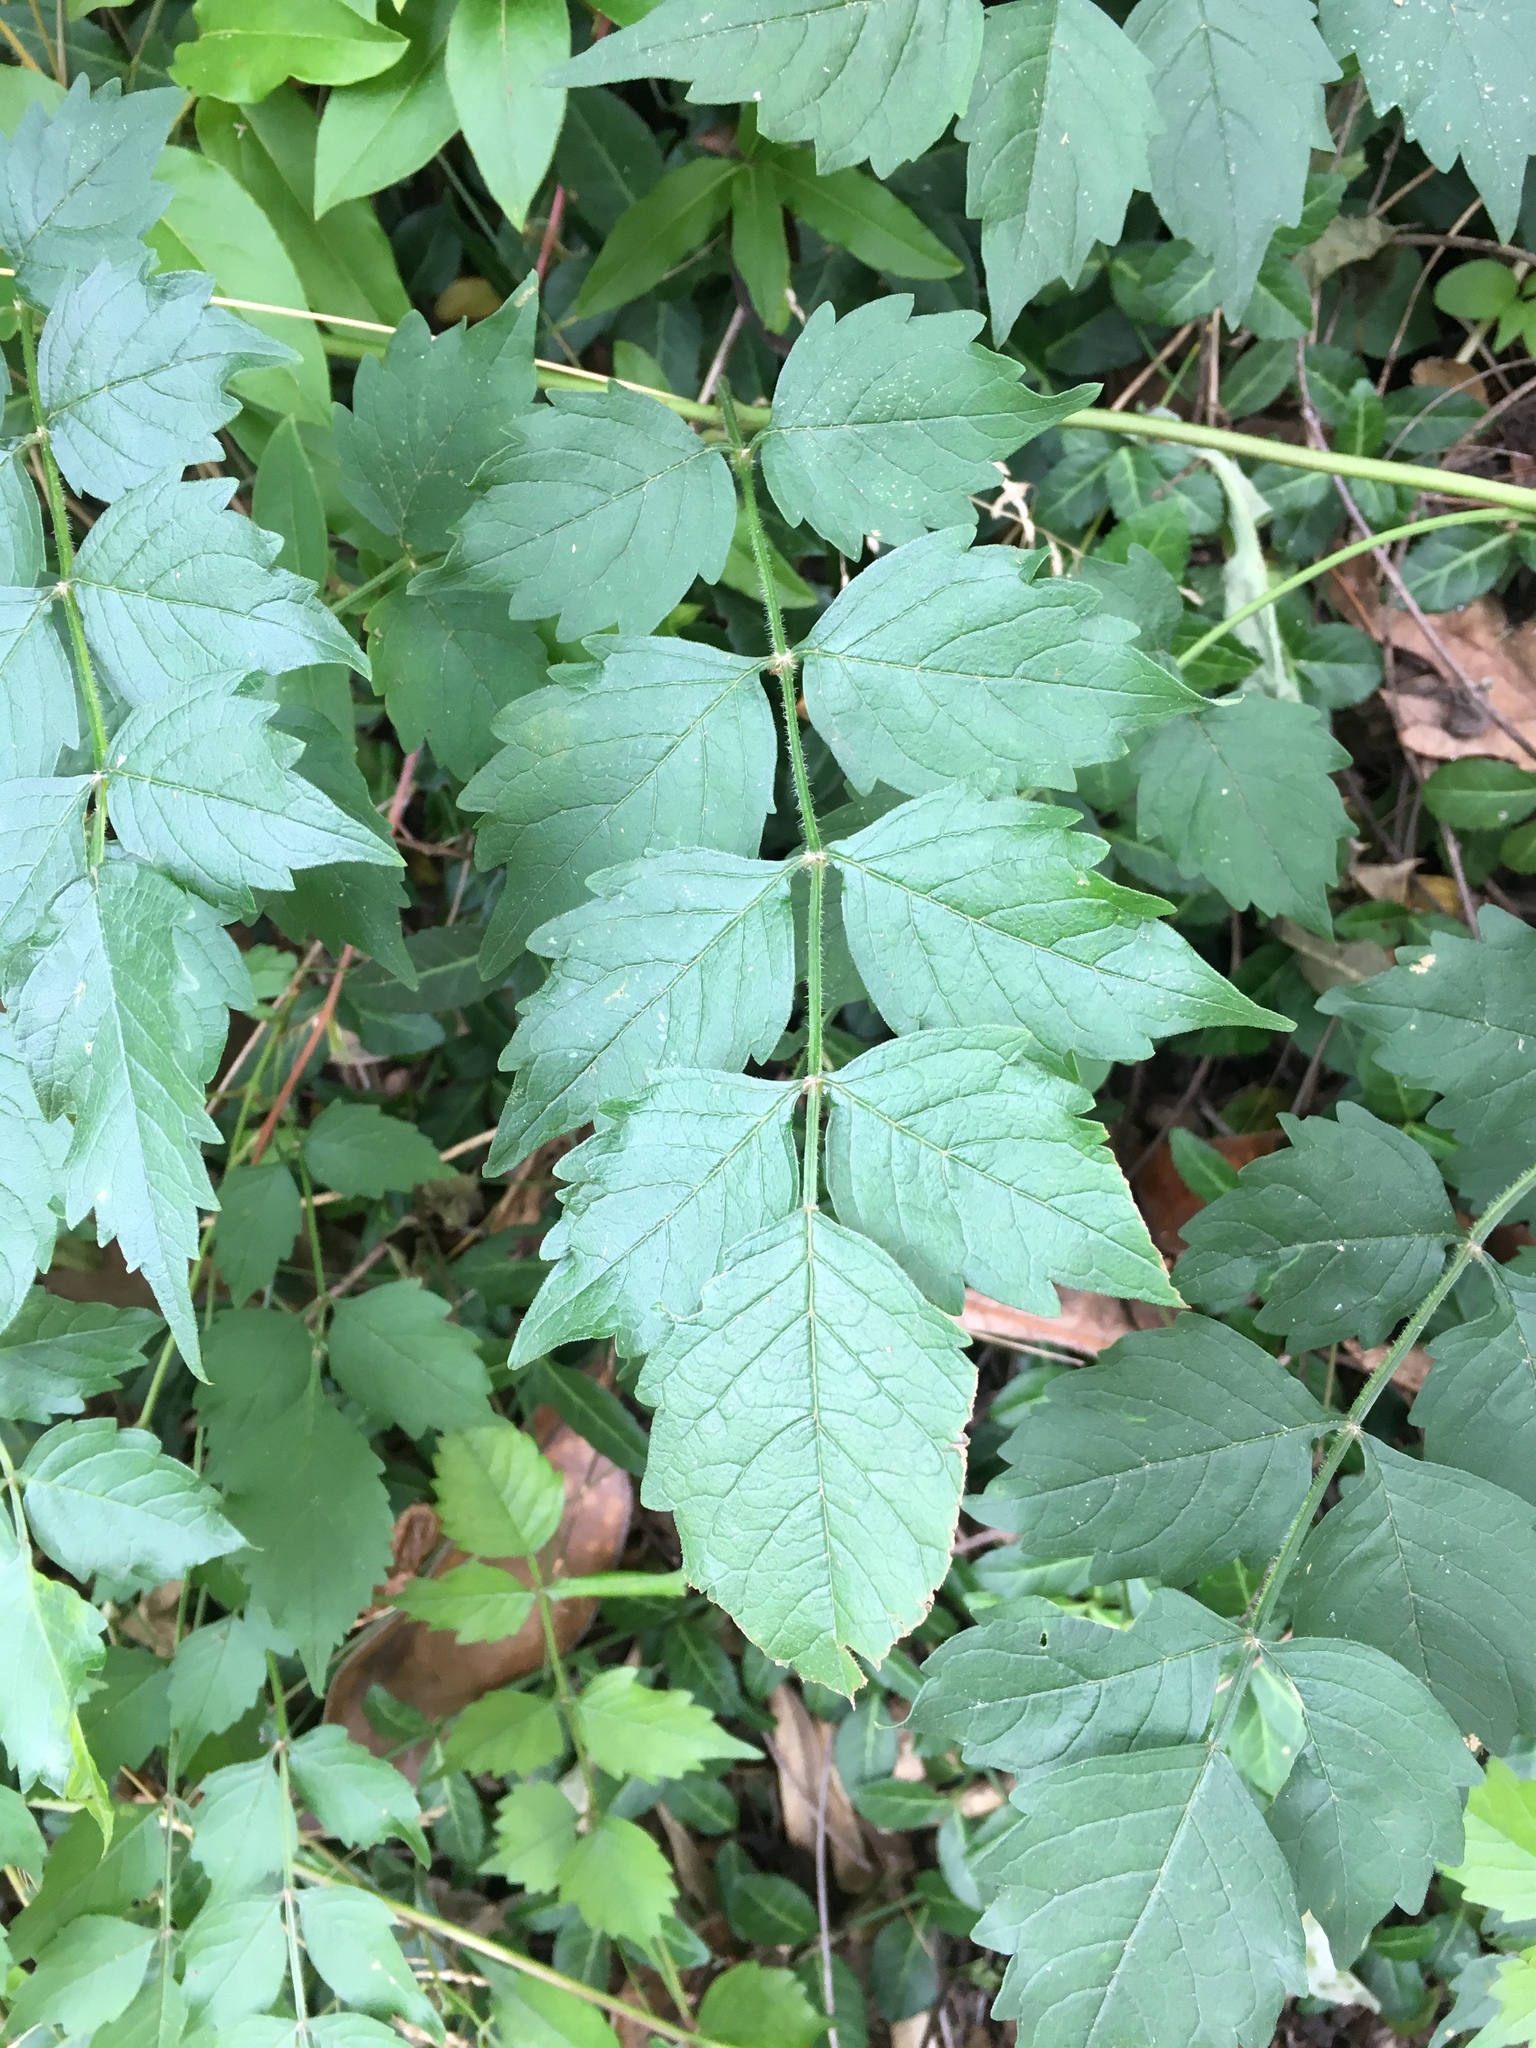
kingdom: Plantae
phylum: Tracheophyta
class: Magnoliopsida
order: Lamiales
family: Bignoniaceae
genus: Campsis
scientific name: Campsis radicans
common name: Trumpet-creeper
